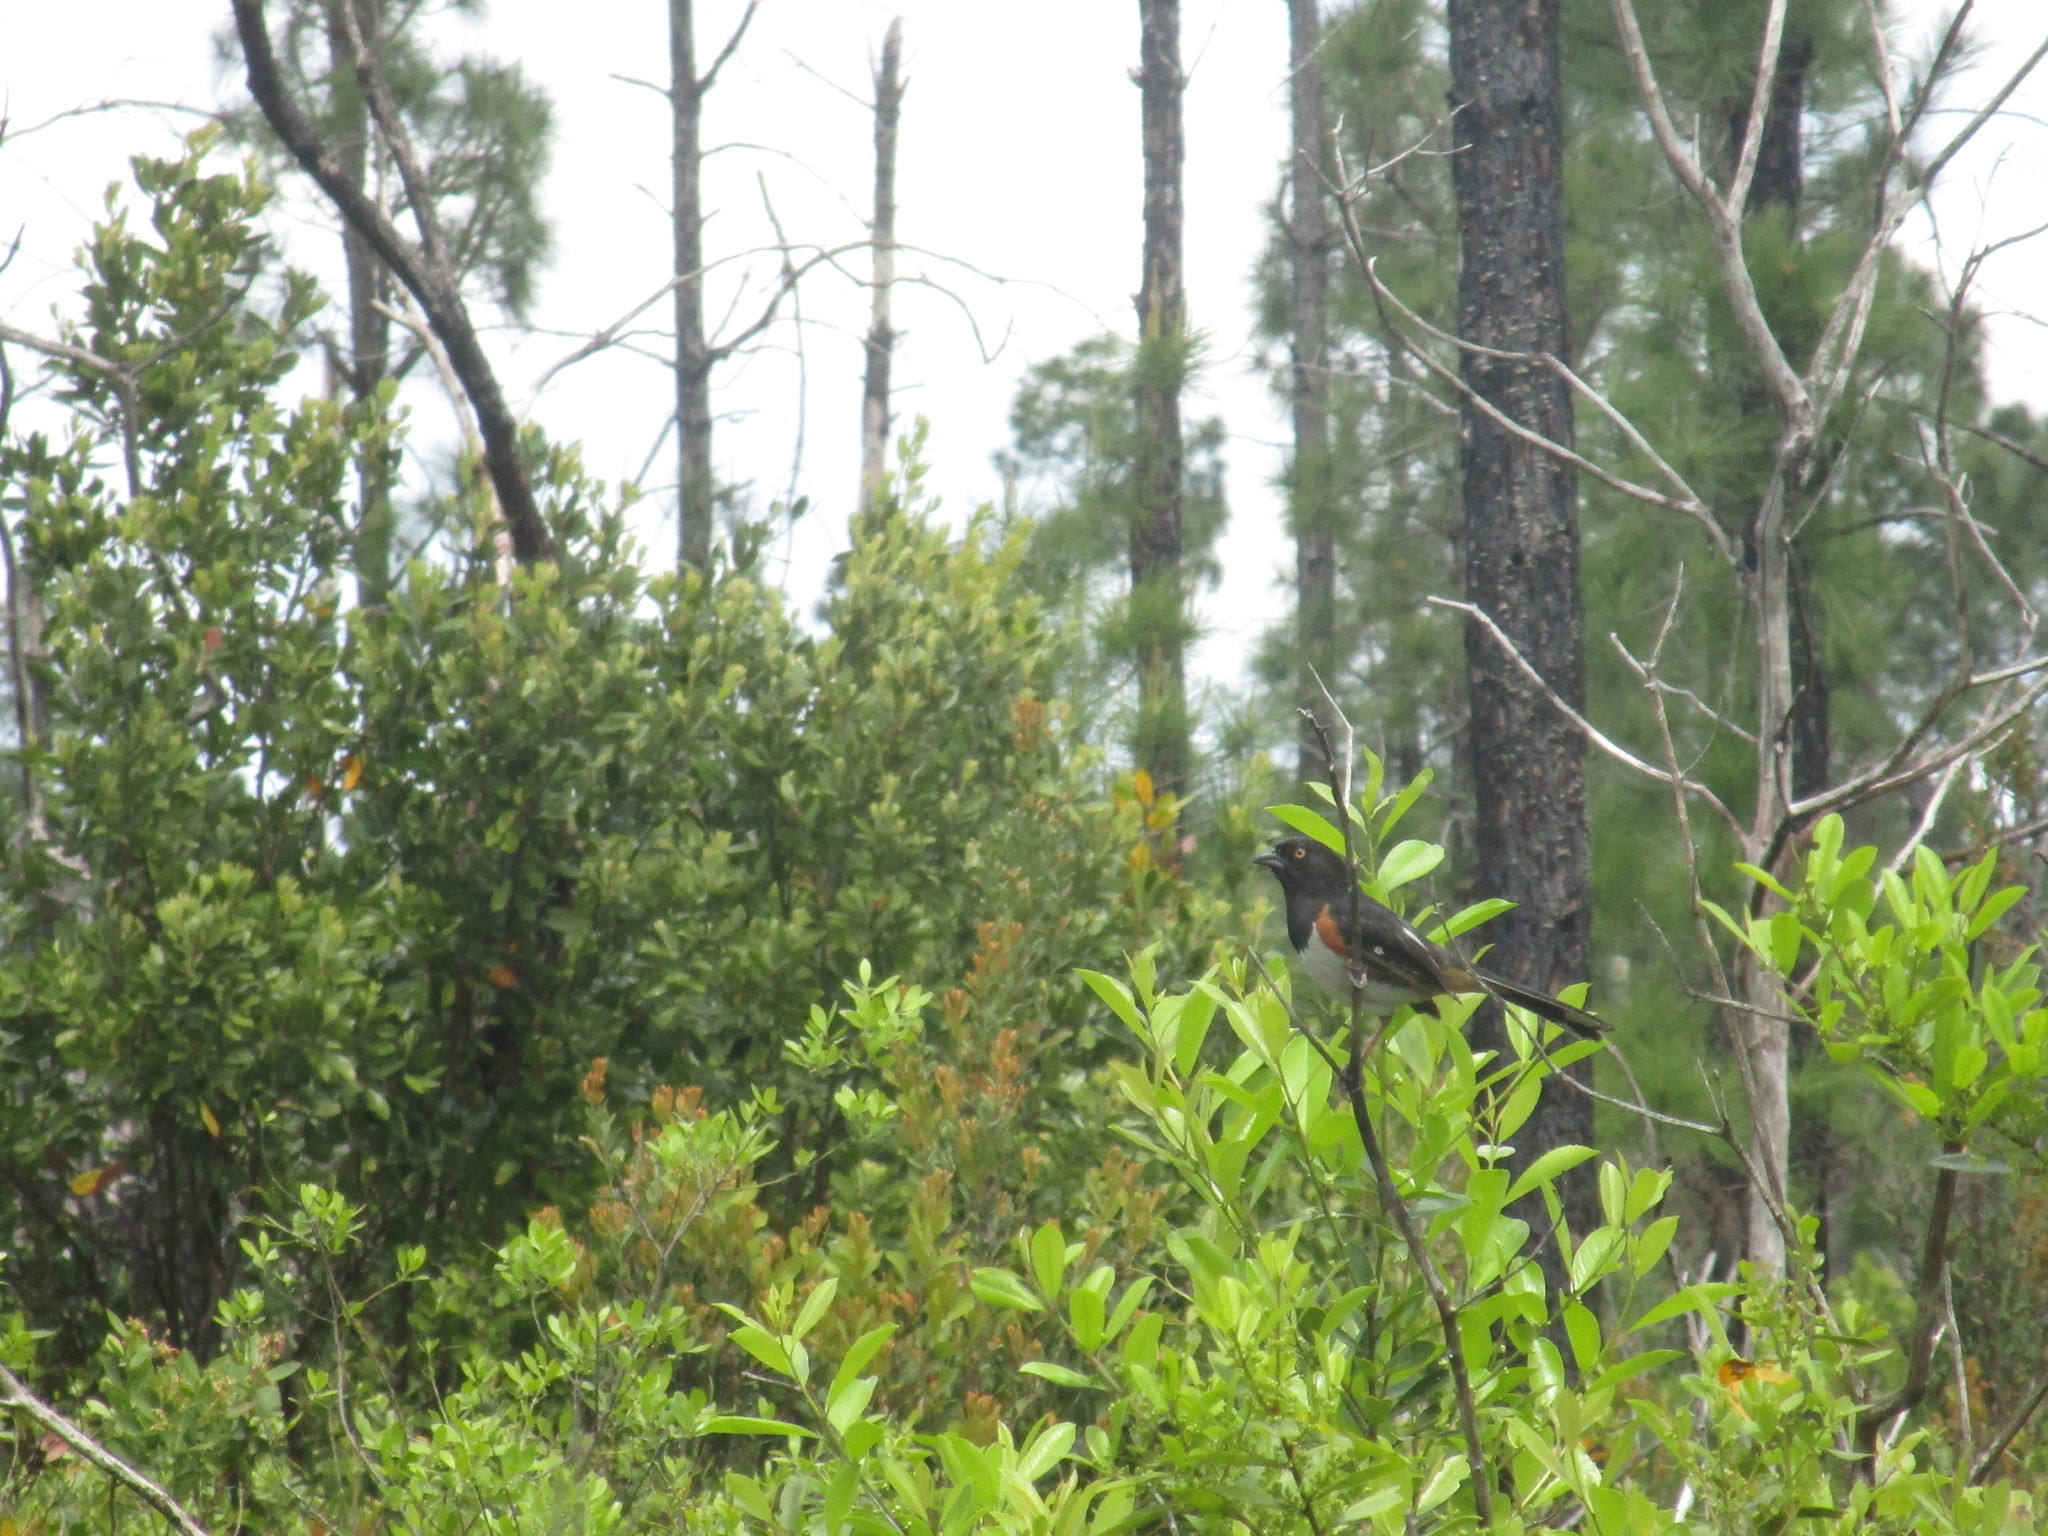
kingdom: Animalia
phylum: Chordata
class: Aves
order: Passeriformes
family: Passerellidae
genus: Pipilo
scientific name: Pipilo erythrophthalmus
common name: Eastern towhee
